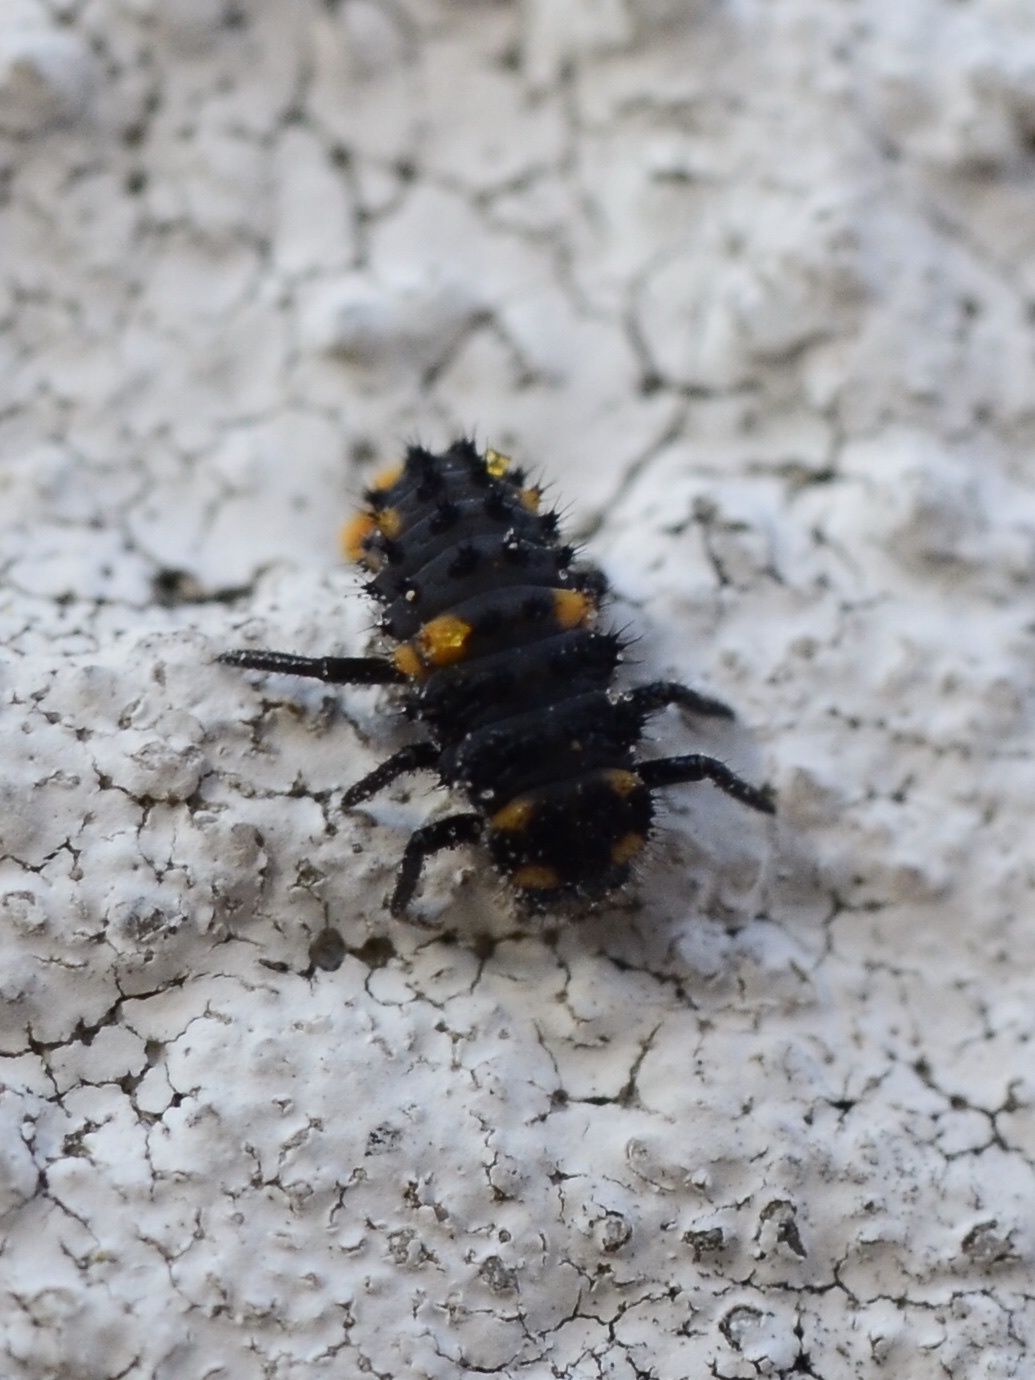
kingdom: Animalia
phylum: Arthropoda
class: Insecta
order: Coleoptera
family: Coccinellidae
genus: Coccinella
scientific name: Coccinella septempunctata
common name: Sevenspotted lady beetle
